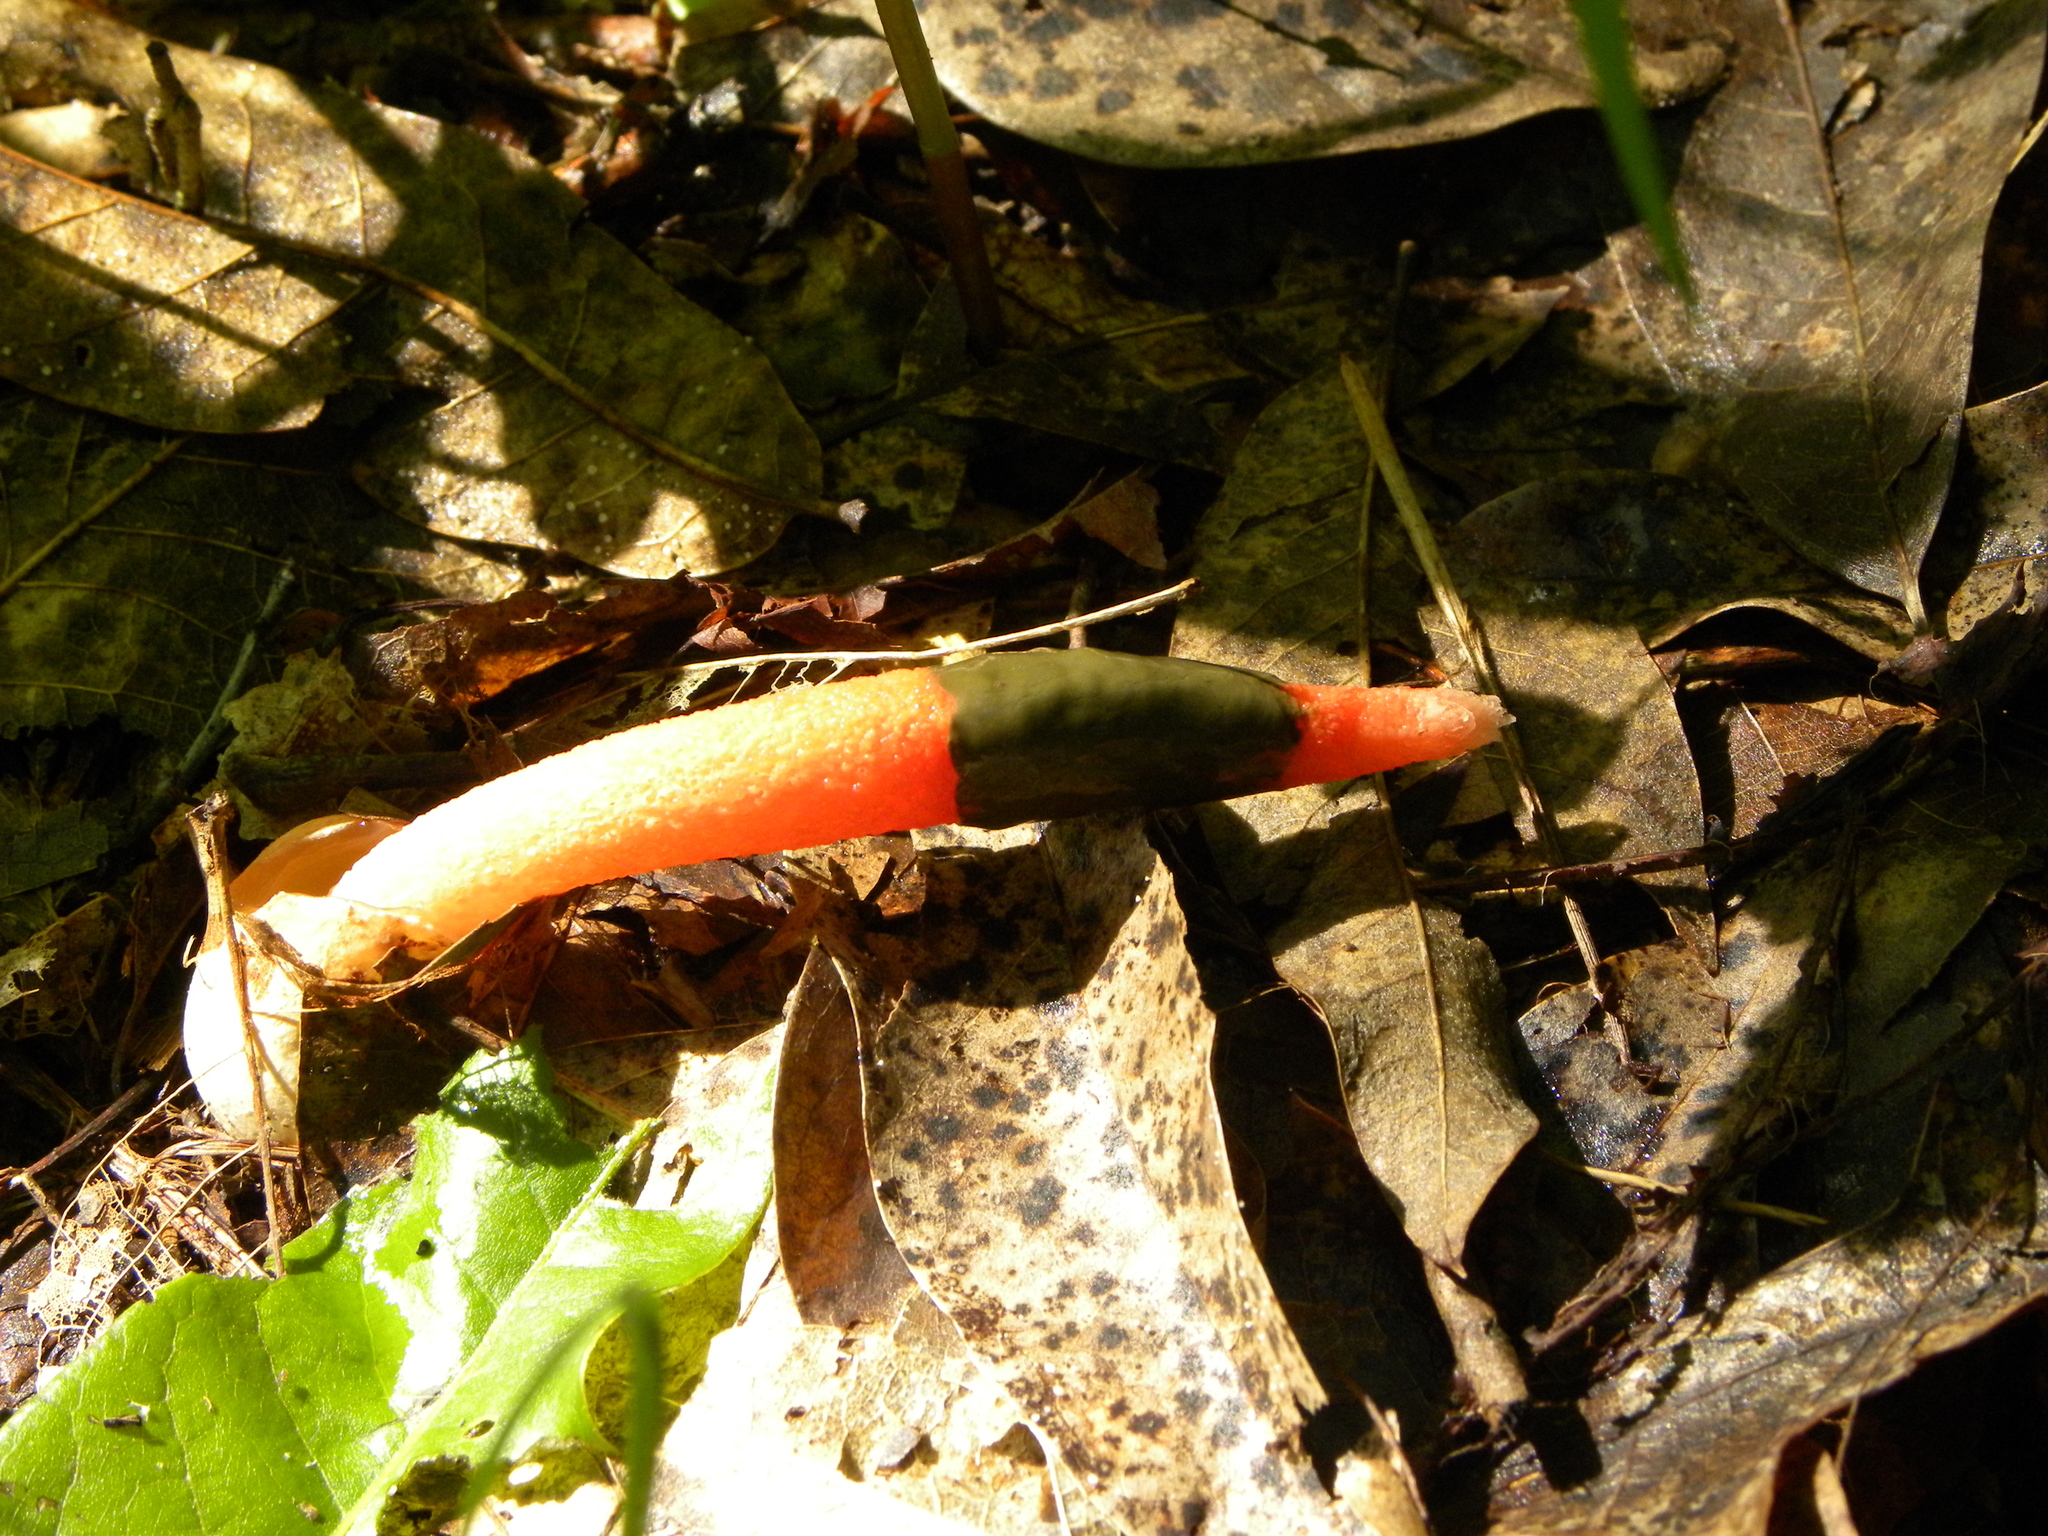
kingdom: Fungi
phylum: Basidiomycota
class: Agaricomycetes
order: Phallales
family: Phallaceae
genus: Mutinus
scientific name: Mutinus elegans
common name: Devil's dipstick
